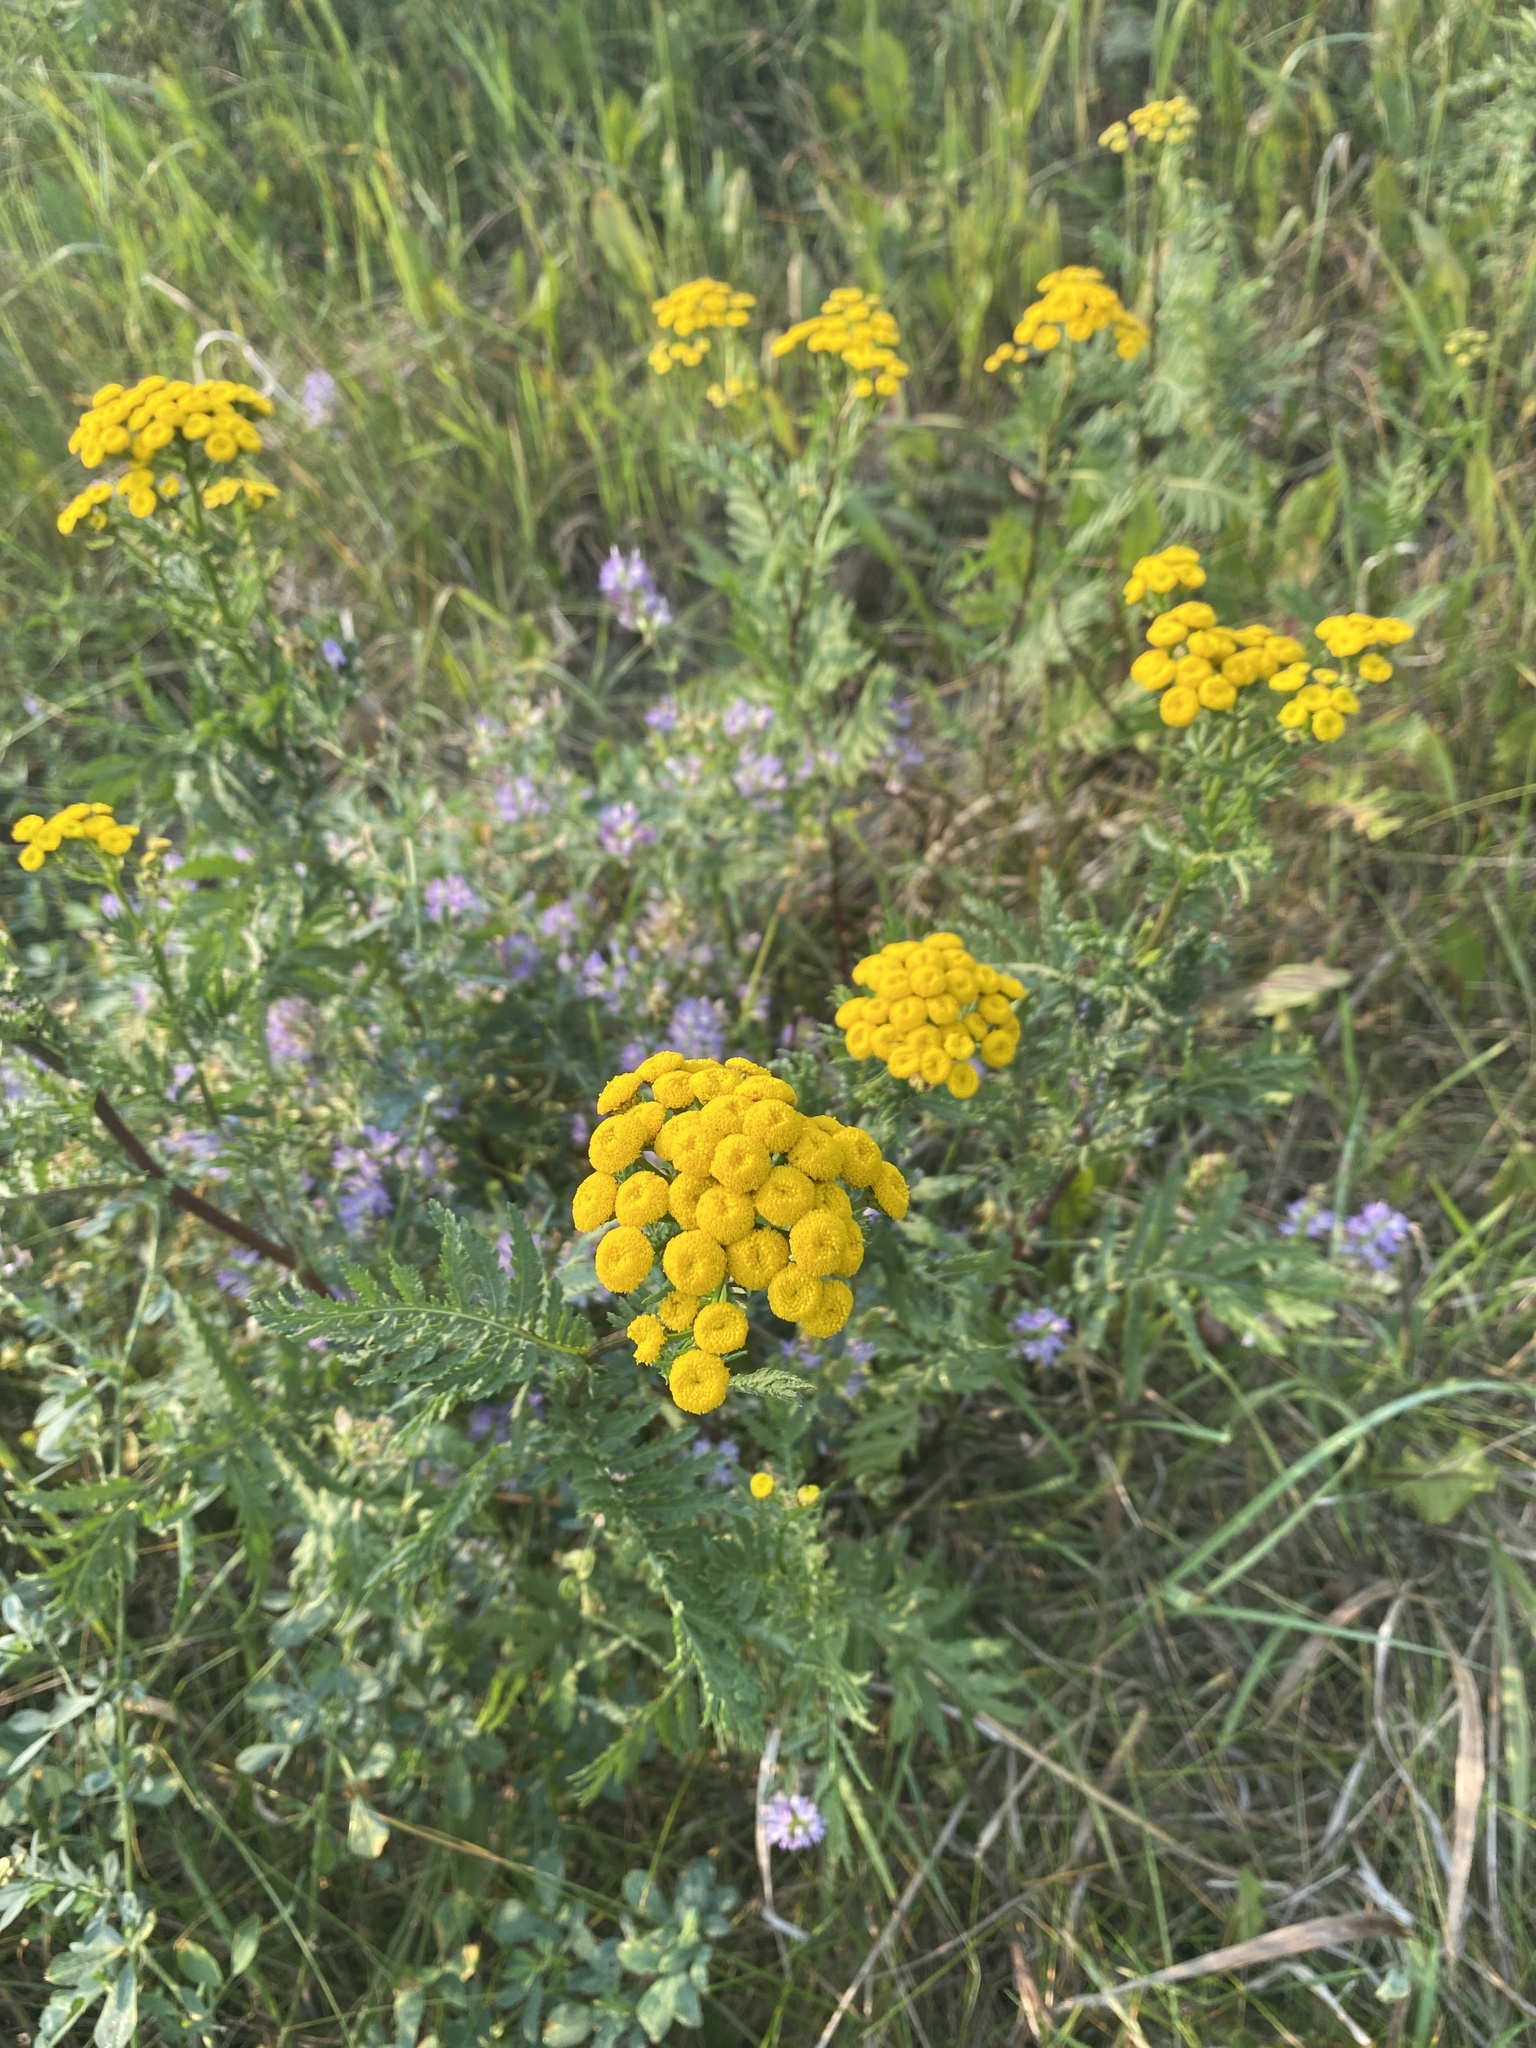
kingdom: Plantae
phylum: Tracheophyta
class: Magnoliopsida
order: Asterales
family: Asteraceae
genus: Tanacetum
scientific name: Tanacetum vulgare
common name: Common tansy
